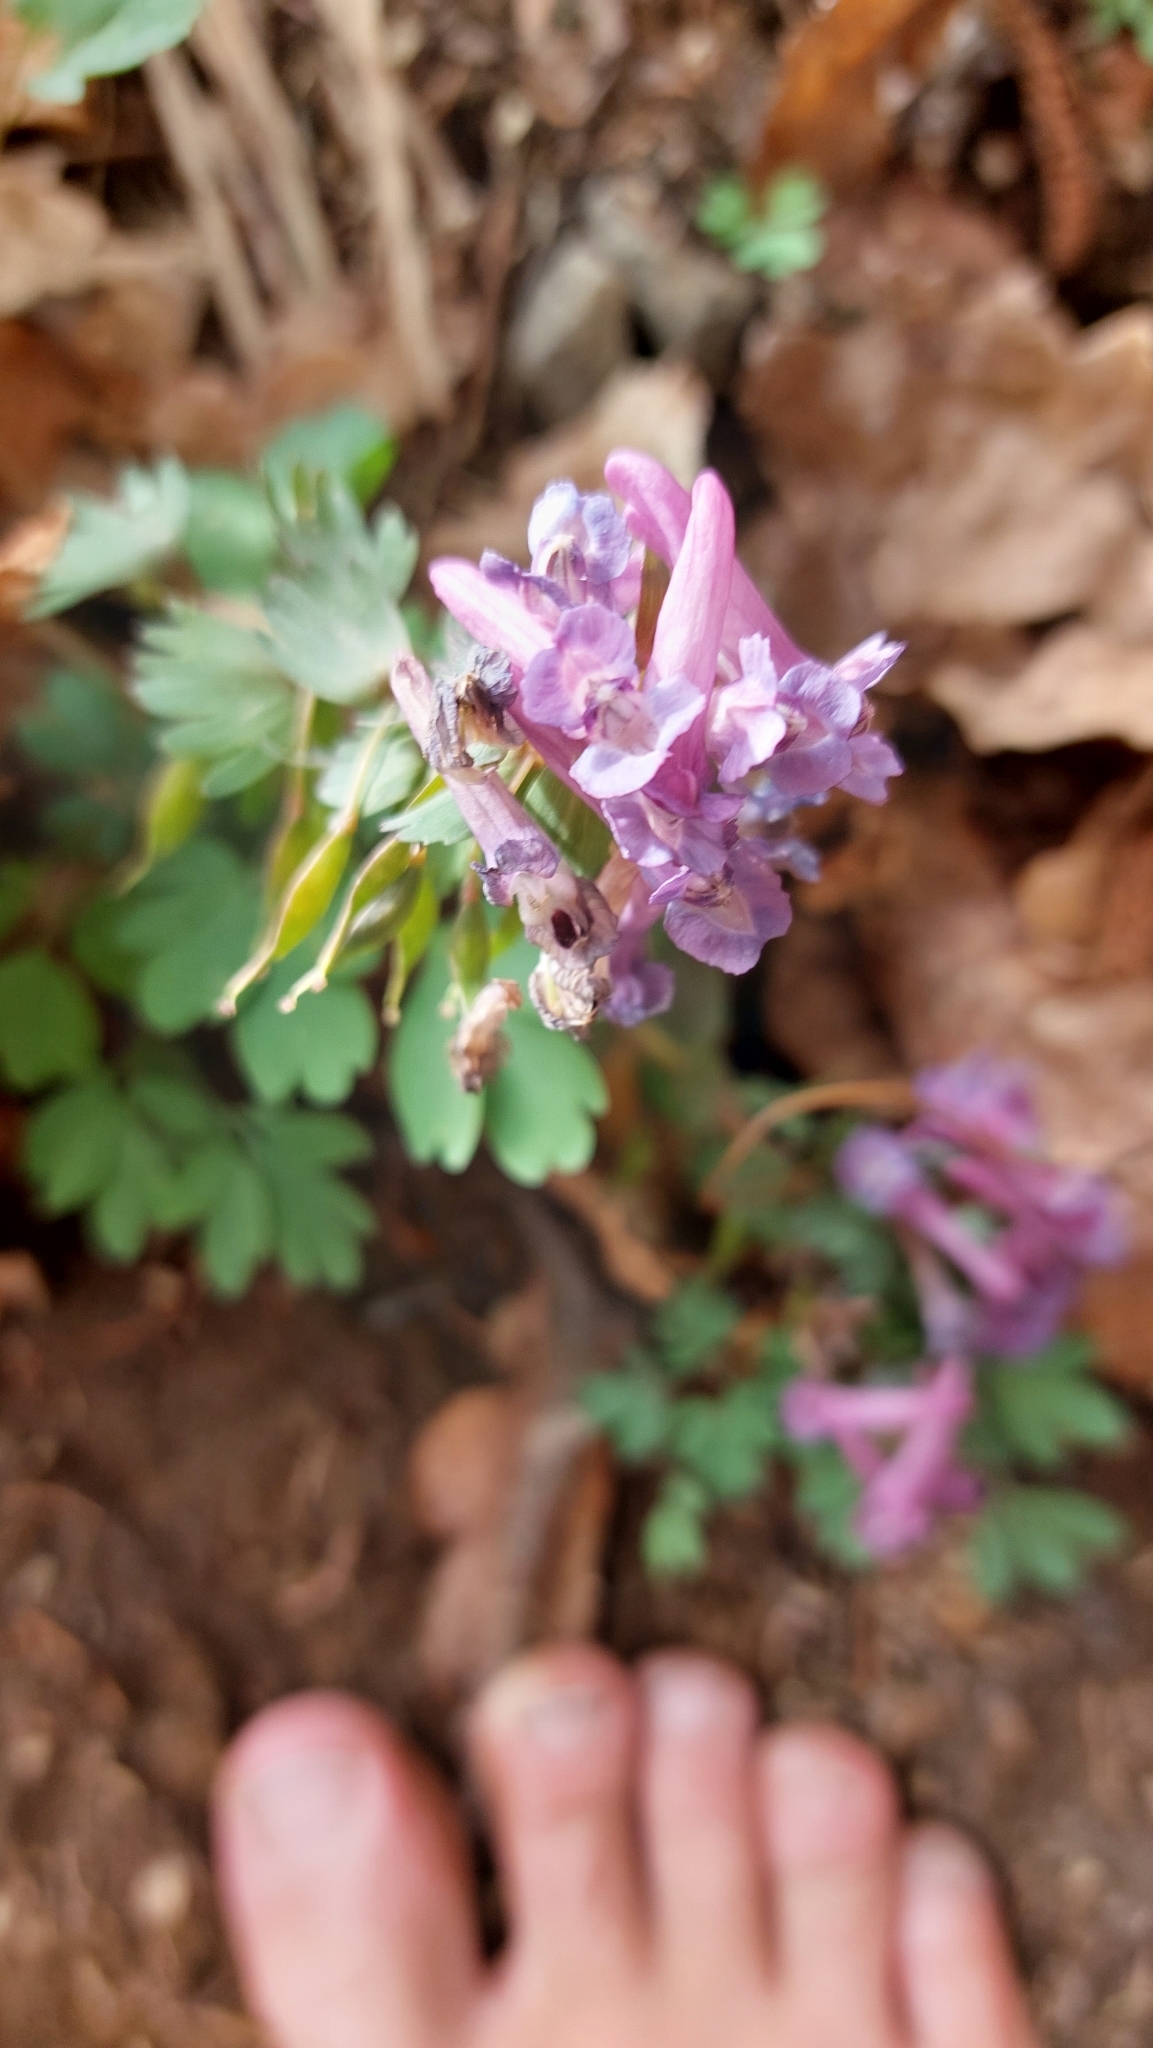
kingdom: Plantae
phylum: Tracheophyta
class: Magnoliopsida
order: Ranunculales
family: Papaveraceae
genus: Corydalis
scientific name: Corydalis solida
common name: Bird-in-a-bush
